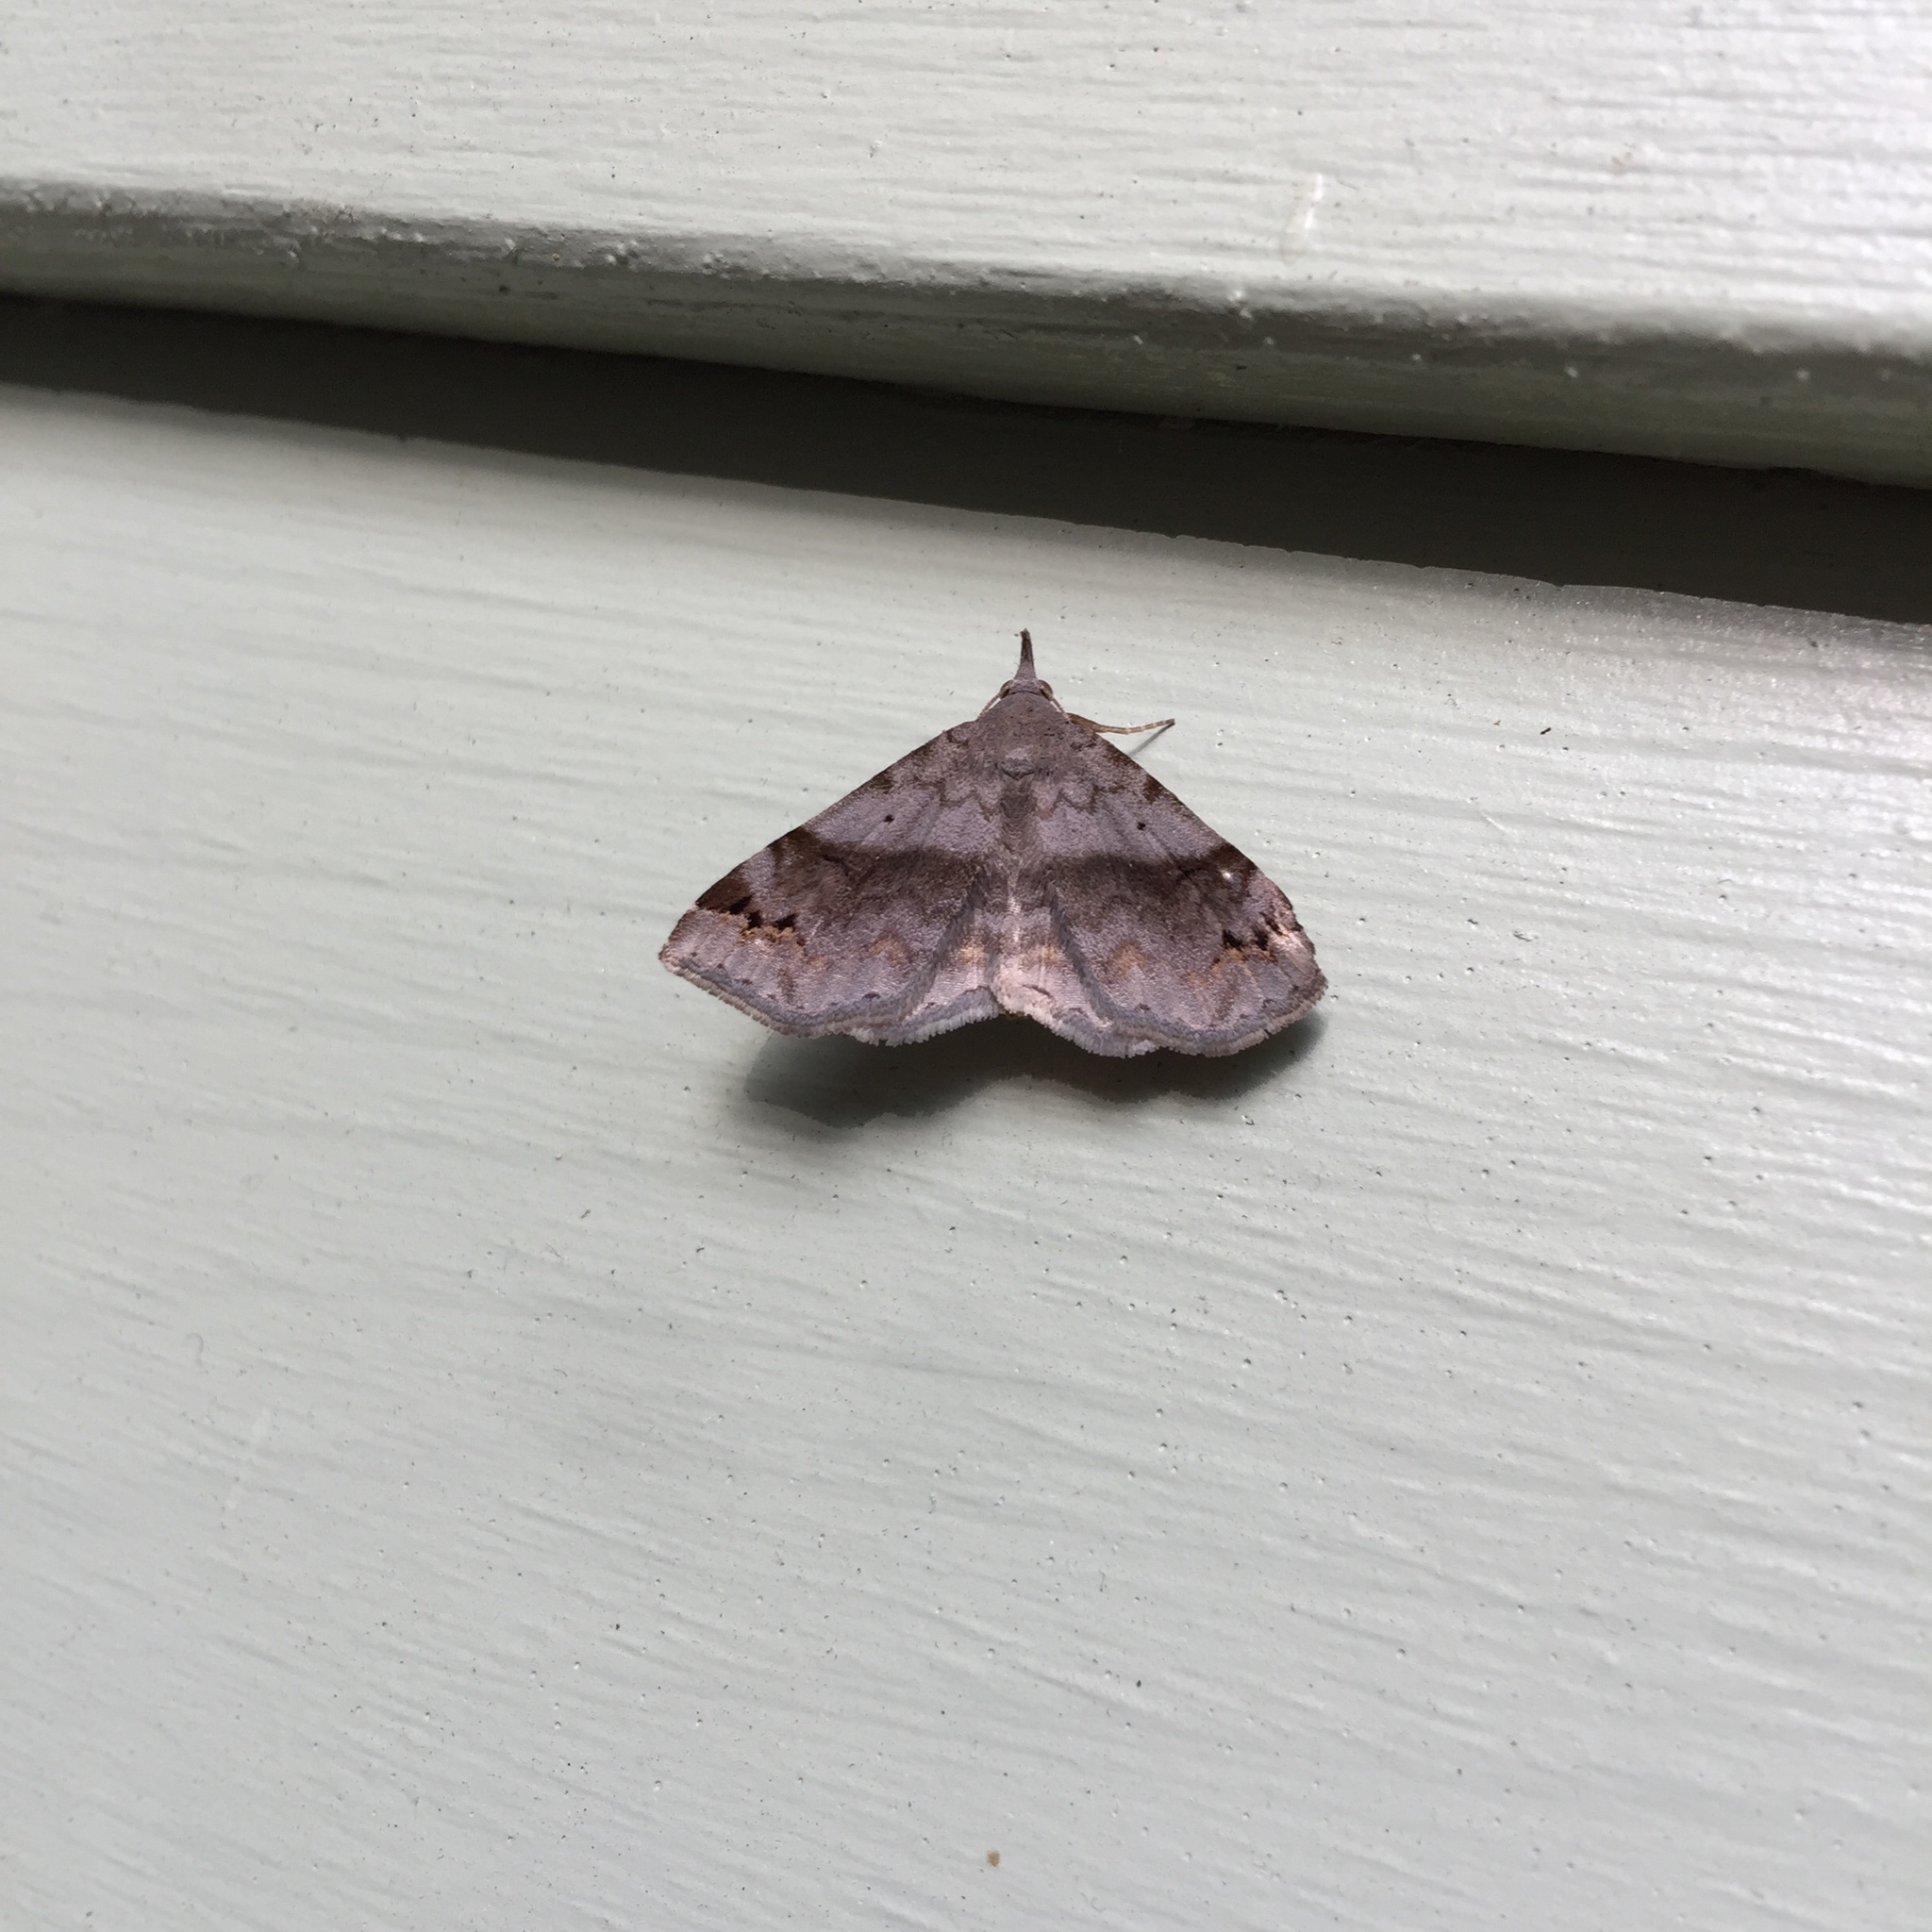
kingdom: Animalia
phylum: Arthropoda
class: Insecta
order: Lepidoptera
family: Erebidae
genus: Spargaloma
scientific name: Spargaloma sexpunctata
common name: Six-spotted gray
